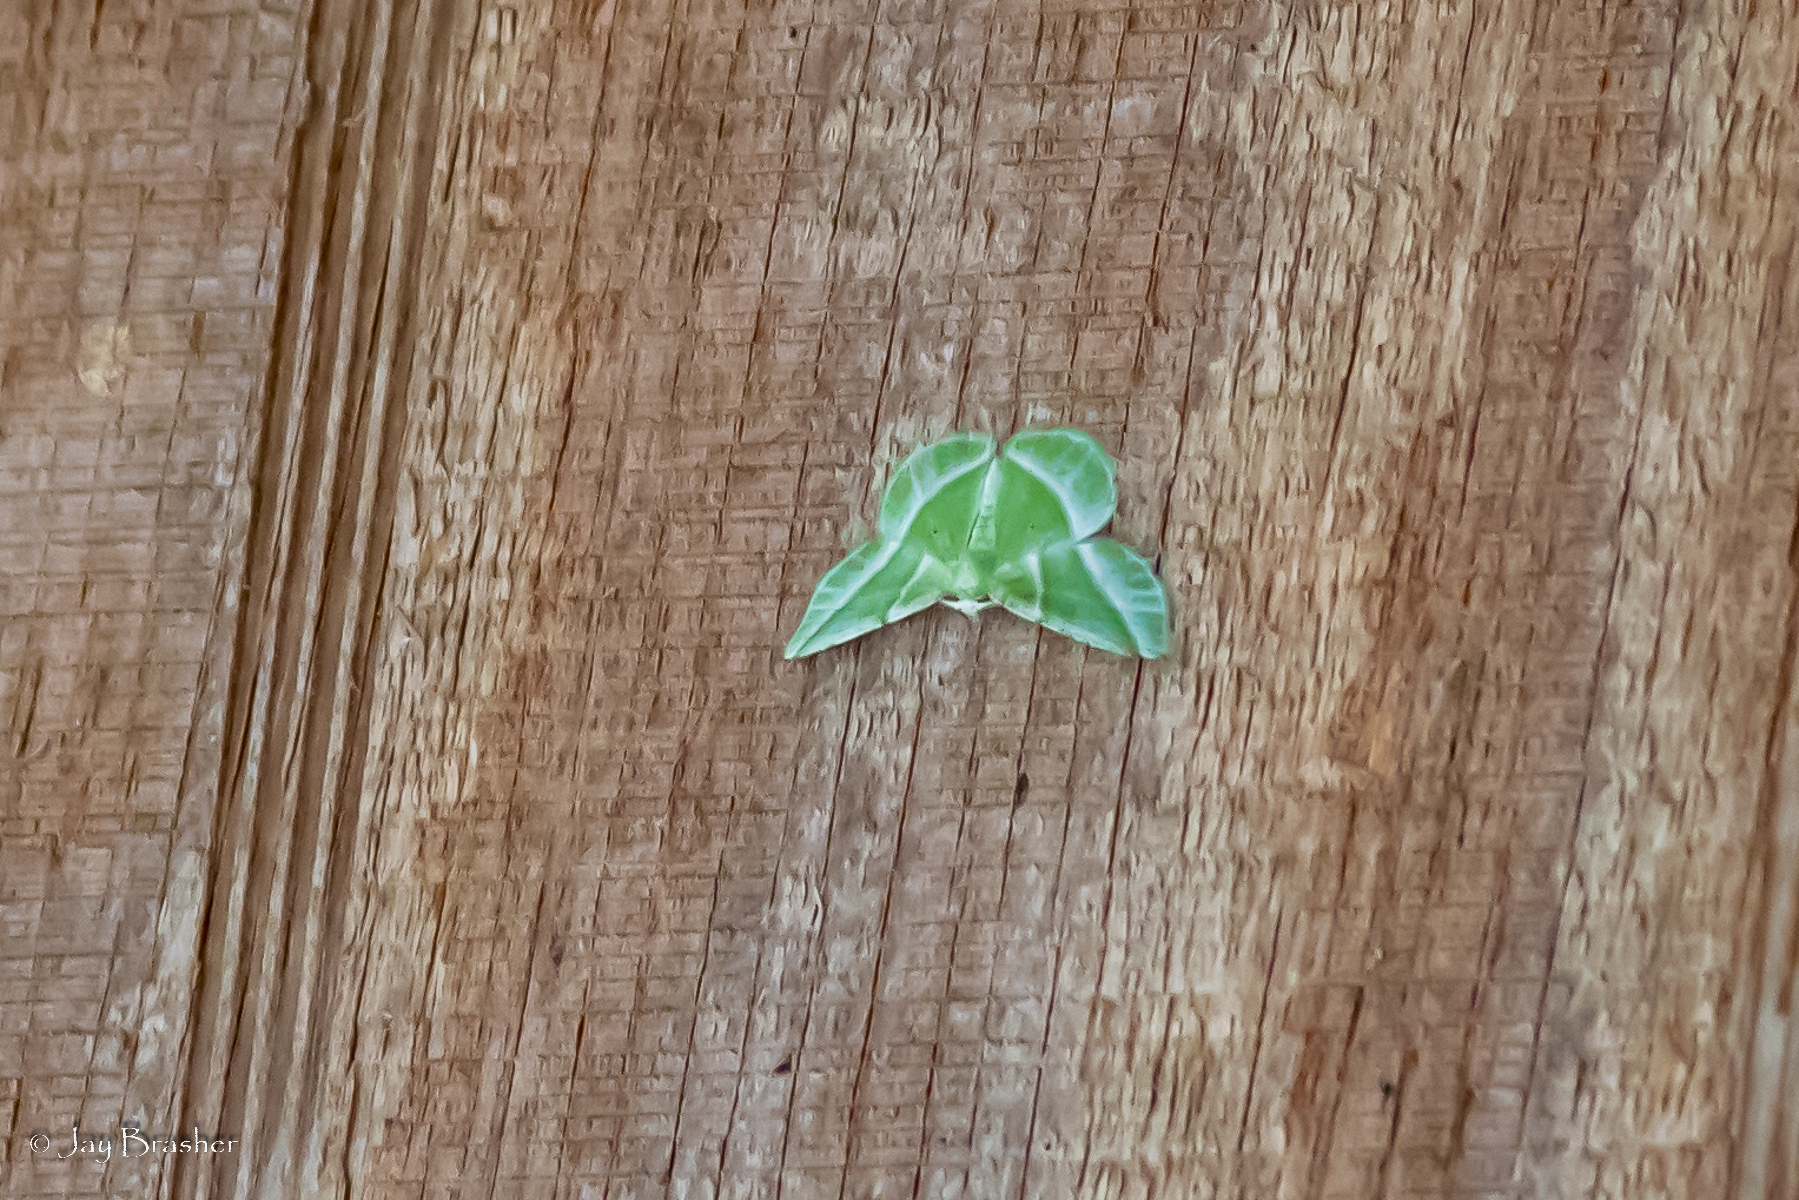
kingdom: Animalia
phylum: Arthropoda
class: Insecta
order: Lepidoptera
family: Geometridae
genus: Dichorda
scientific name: Dichorda iridaria
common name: Showy emerald
